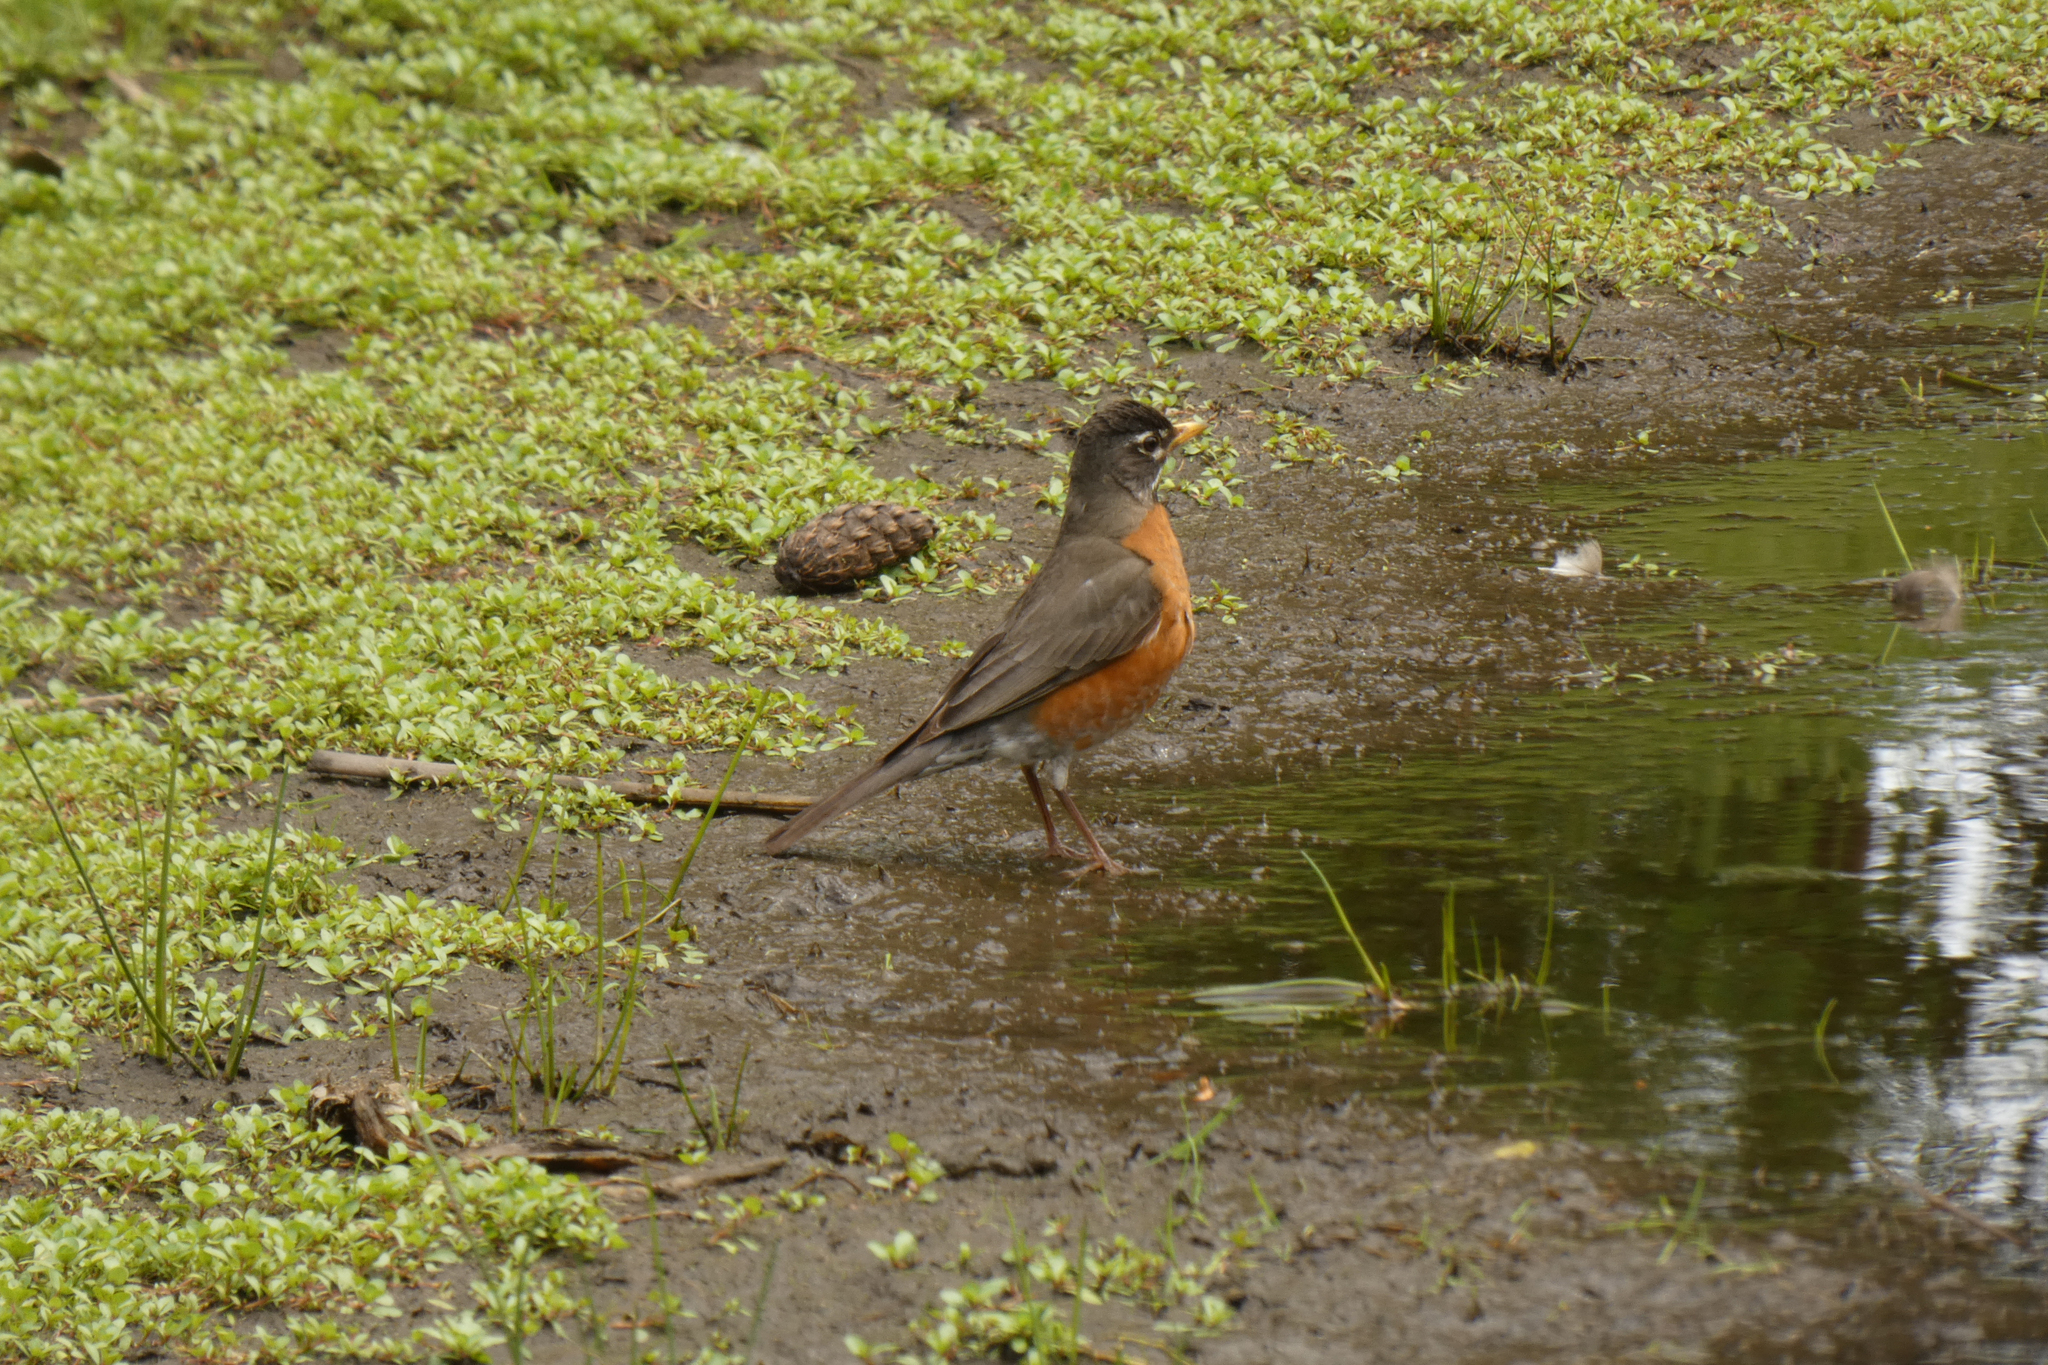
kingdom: Animalia
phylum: Chordata
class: Aves
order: Passeriformes
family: Turdidae
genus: Turdus
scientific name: Turdus migratorius
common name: American robin
